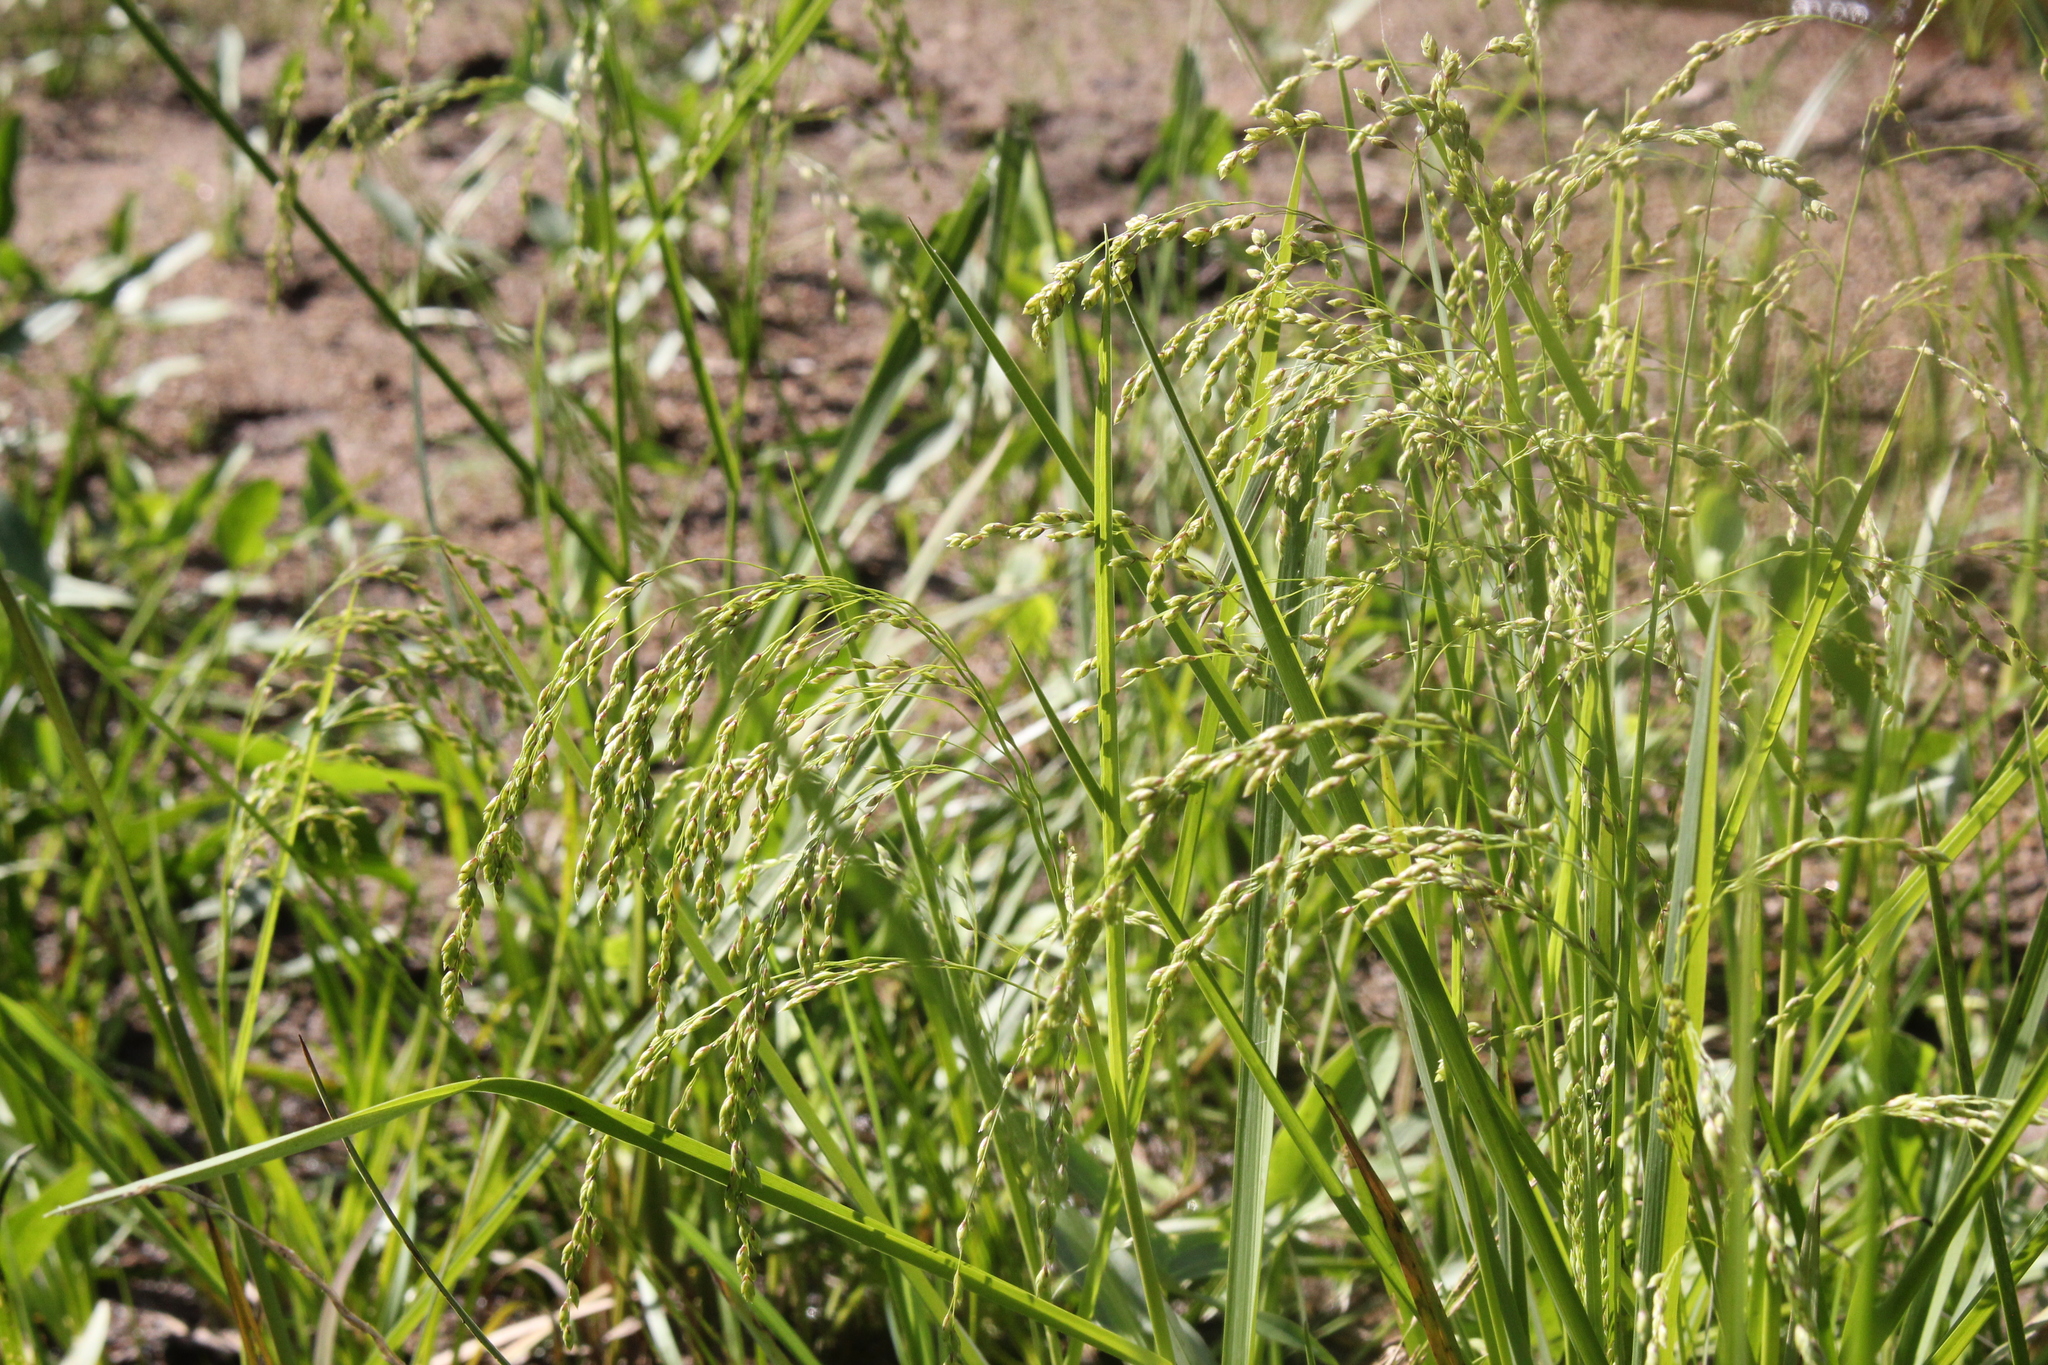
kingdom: Plantae
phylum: Tracheophyta
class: Liliopsida
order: Poales
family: Poaceae
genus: Glyceria
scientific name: Glyceria canadensis
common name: Canada mannagrass
